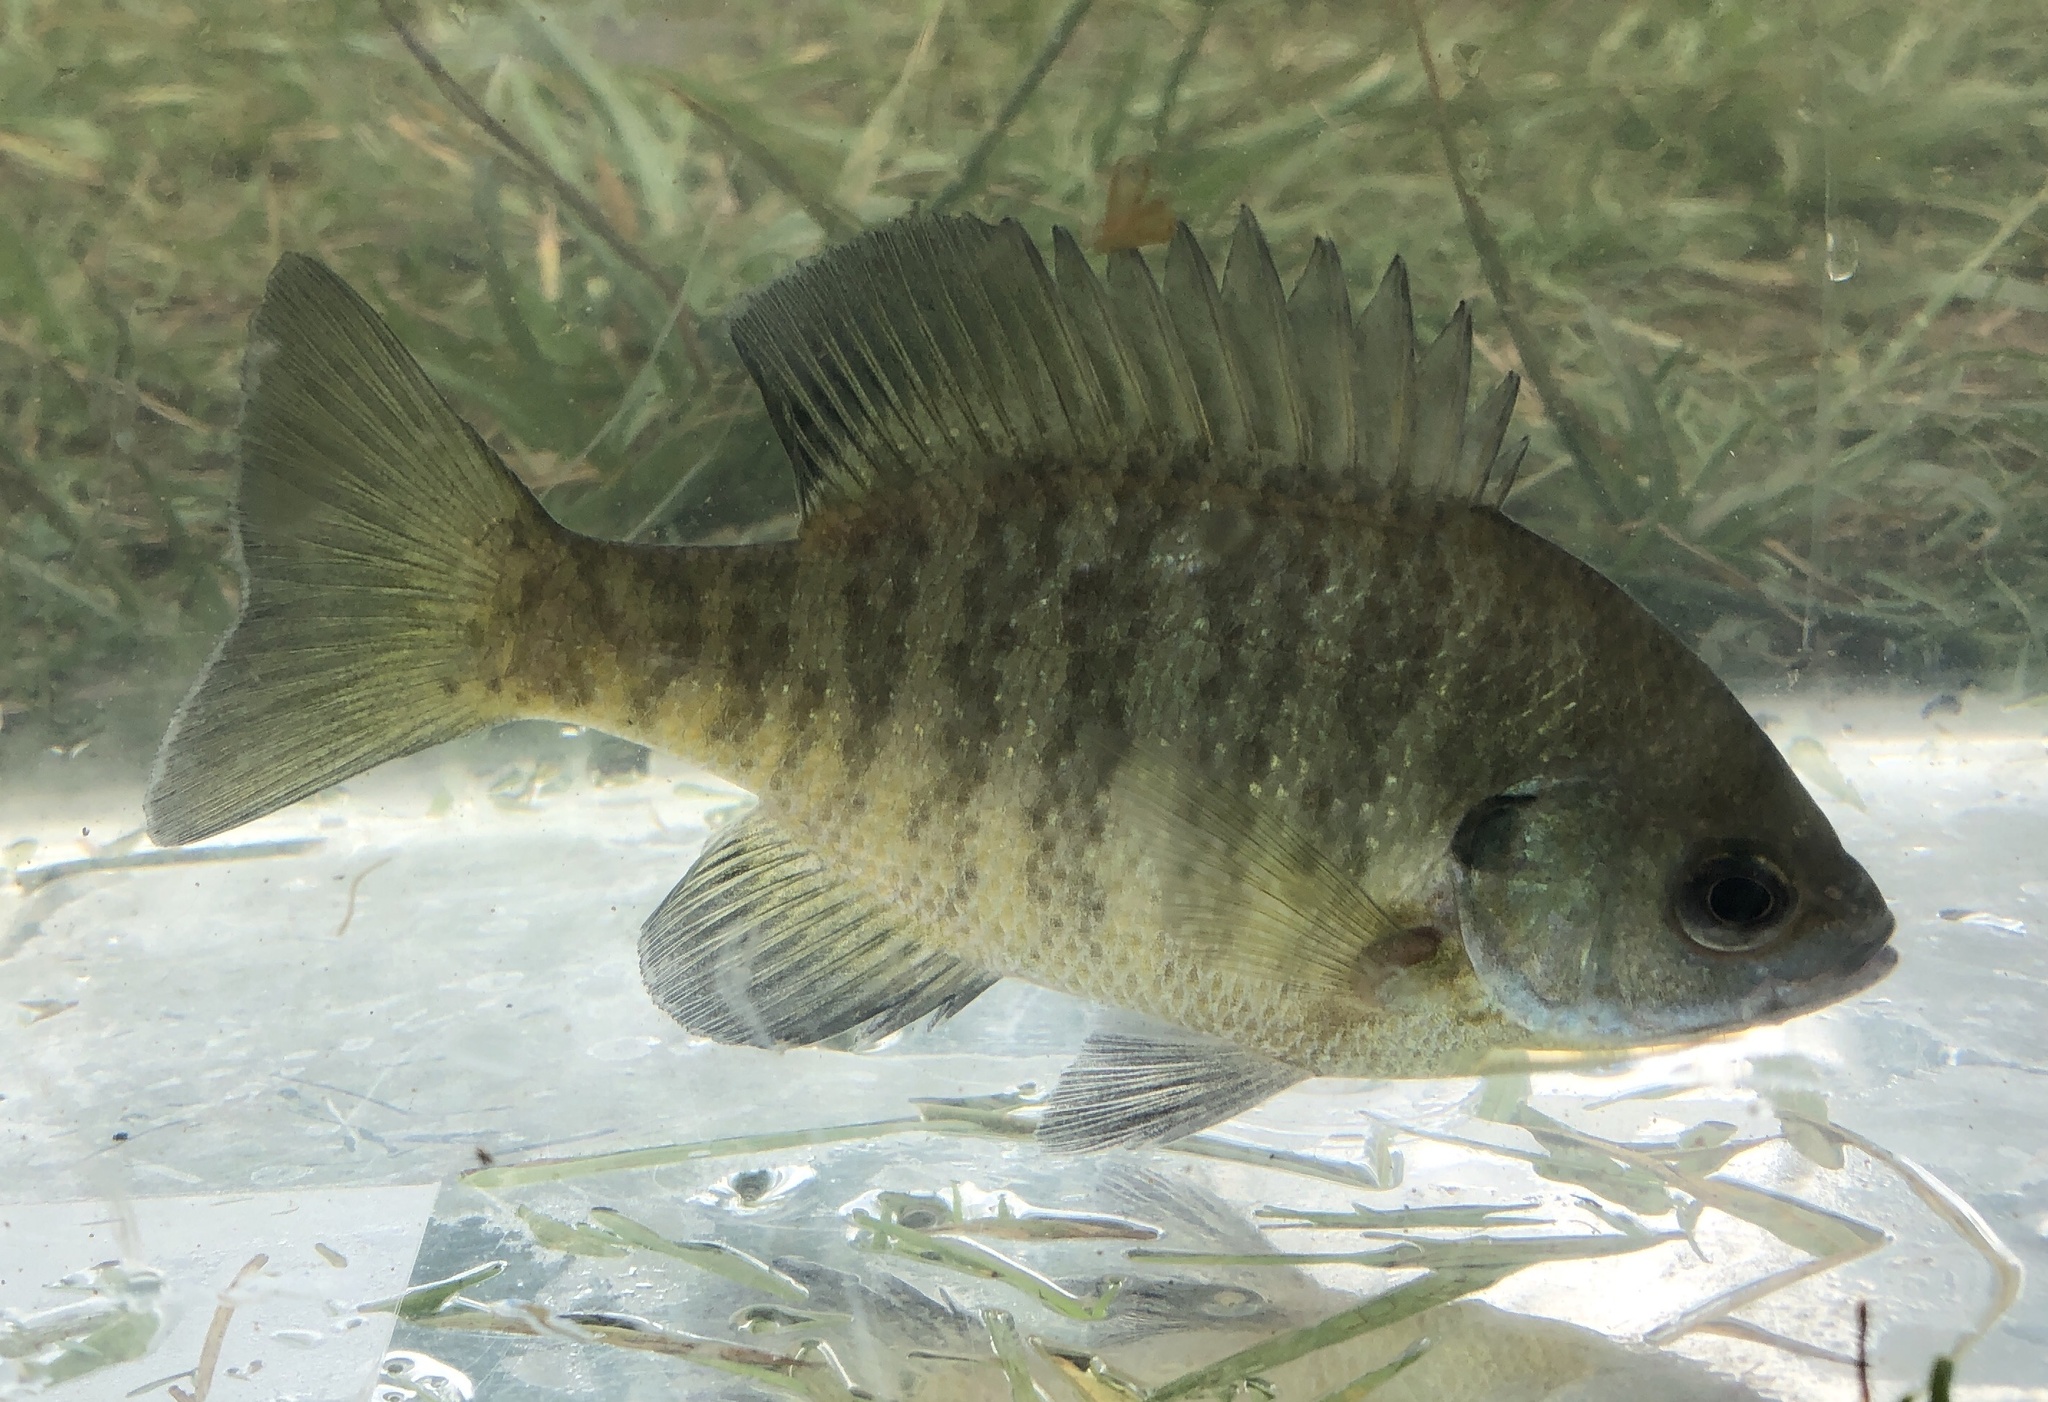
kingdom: Animalia
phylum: Chordata
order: Perciformes
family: Centrarchidae
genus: Lepomis
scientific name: Lepomis macrochirus
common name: Bluegill
